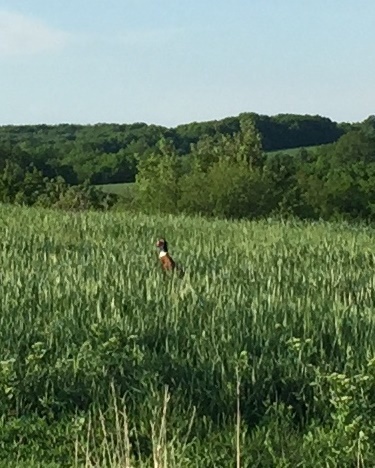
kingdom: Animalia
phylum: Chordata
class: Aves
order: Galliformes
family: Phasianidae
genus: Phasianus
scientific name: Phasianus colchicus
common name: Common pheasant
